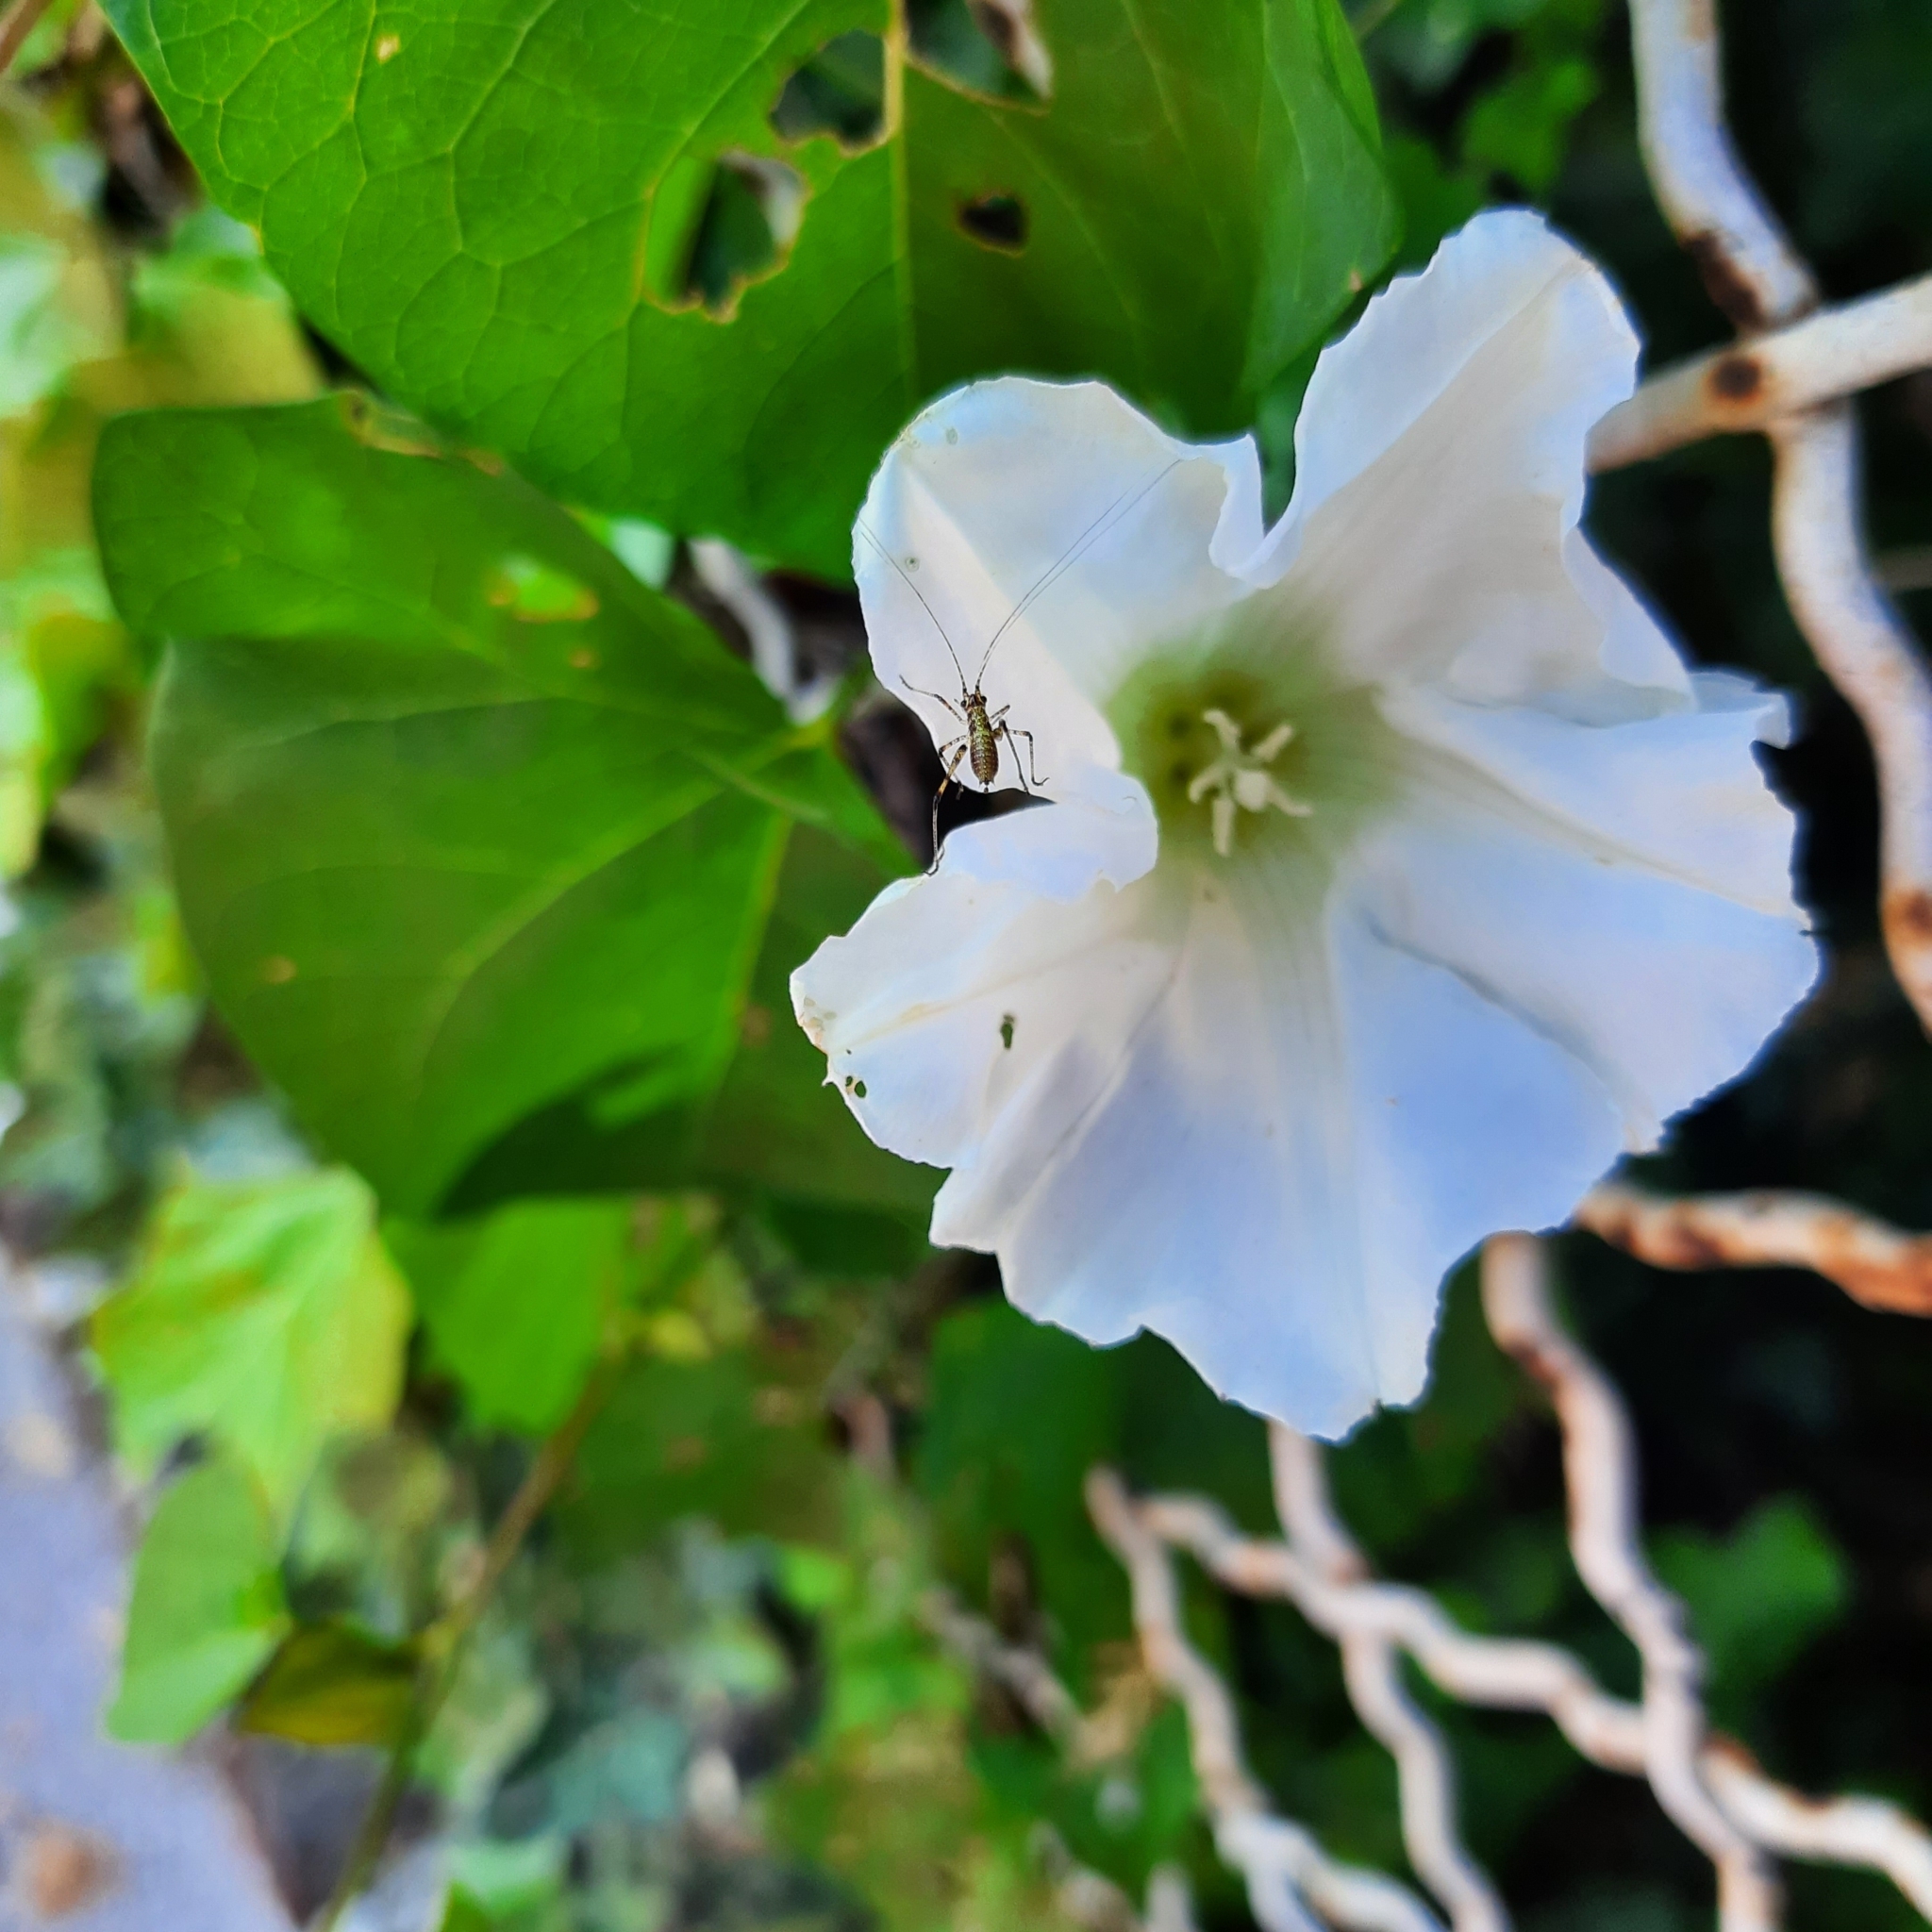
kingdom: Animalia
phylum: Arthropoda
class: Insecta
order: Orthoptera
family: Tettigoniidae
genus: Phaneroptera
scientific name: Phaneroptera nana
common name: Southern sickle bush-cricket
